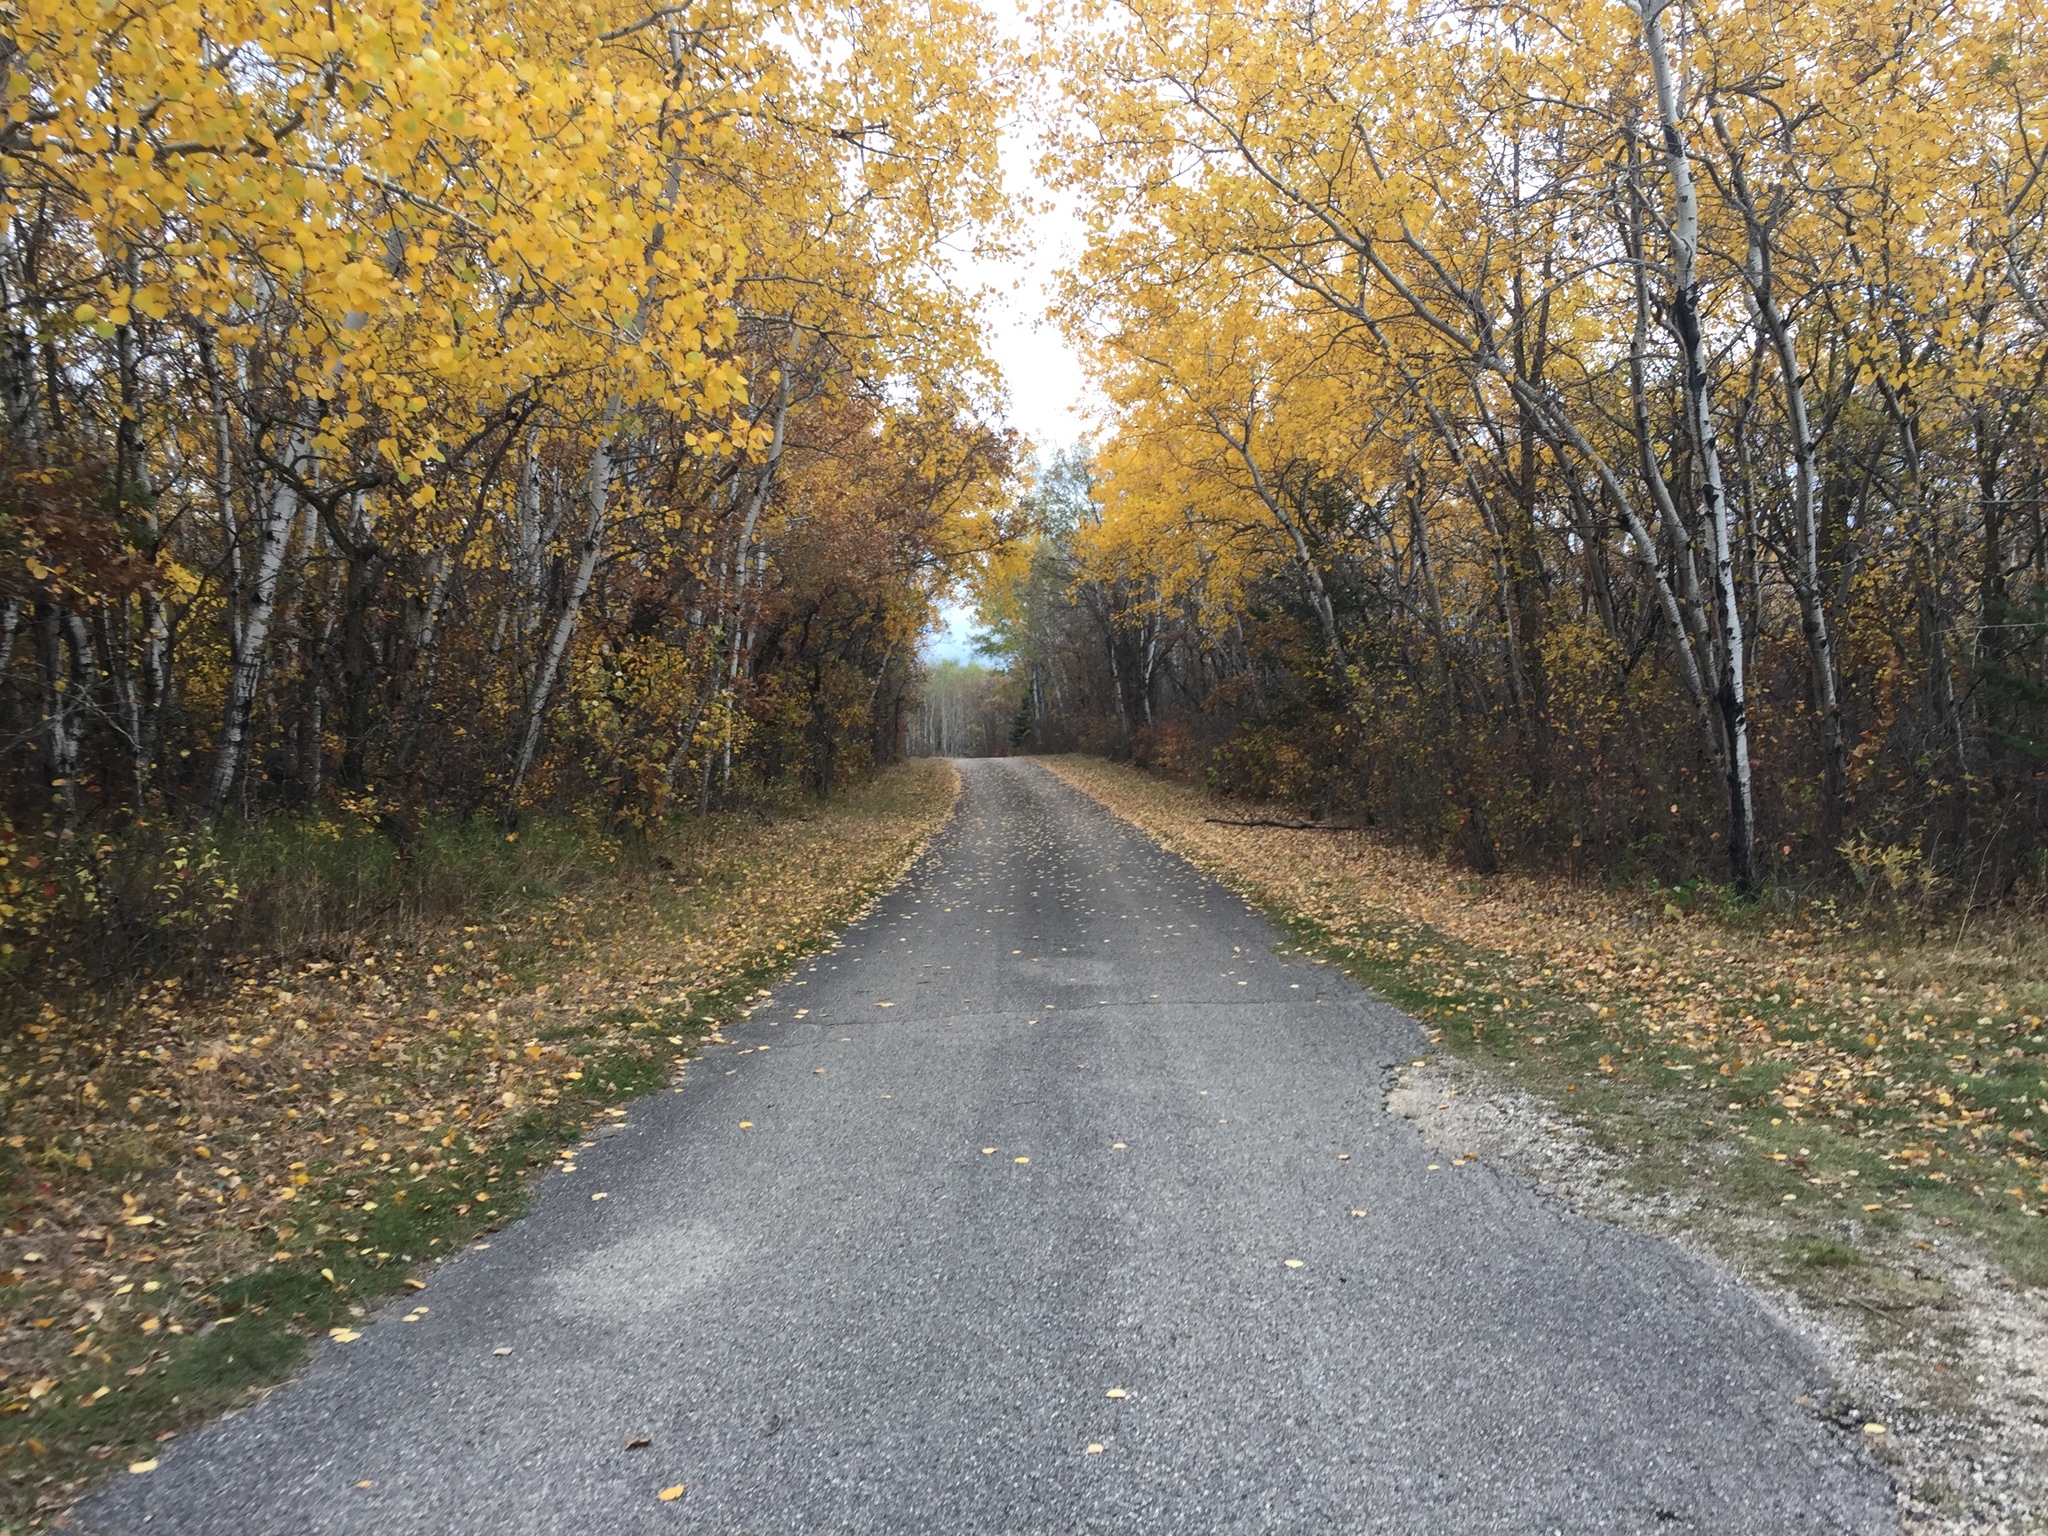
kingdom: Plantae
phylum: Tracheophyta
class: Magnoliopsida
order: Malpighiales
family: Salicaceae
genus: Populus
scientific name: Populus tremuloides
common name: Quaking aspen
